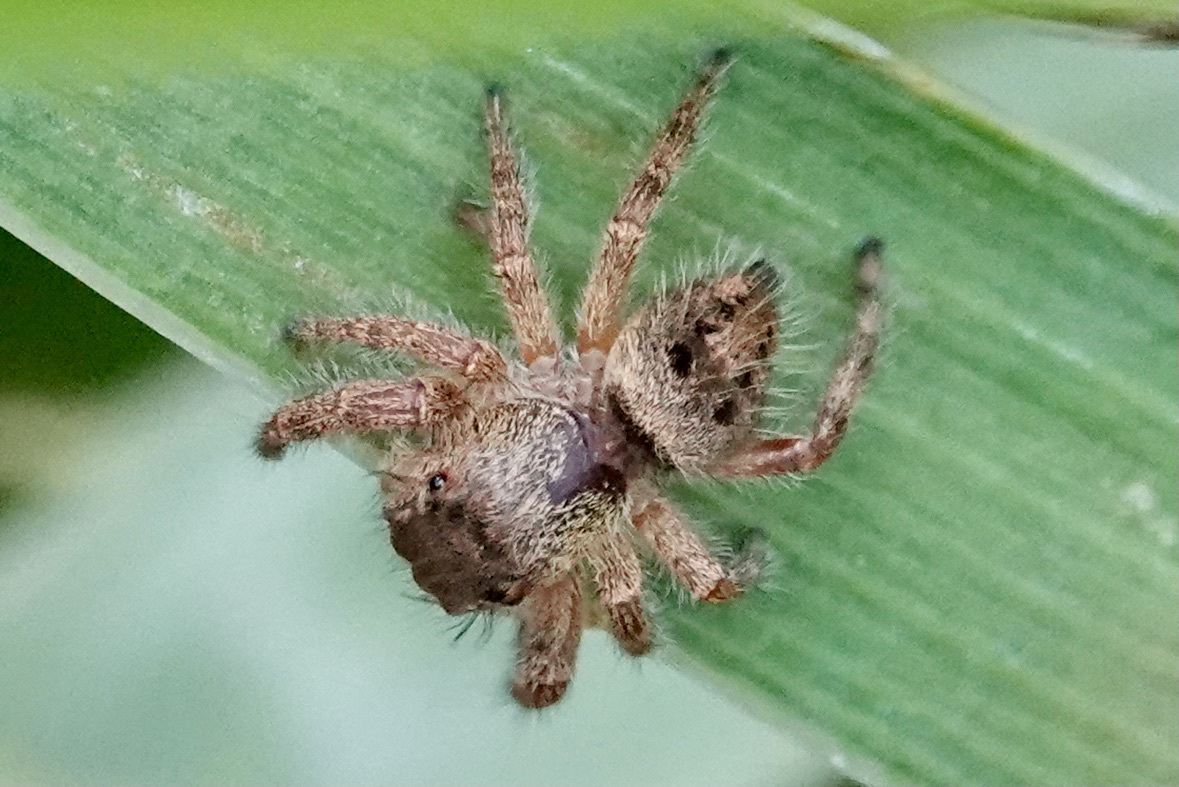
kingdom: Animalia
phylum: Arthropoda
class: Arachnida
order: Araneae
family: Salticidae
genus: Phidippus
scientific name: Phidippus princeps
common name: Grayish jumping spider
